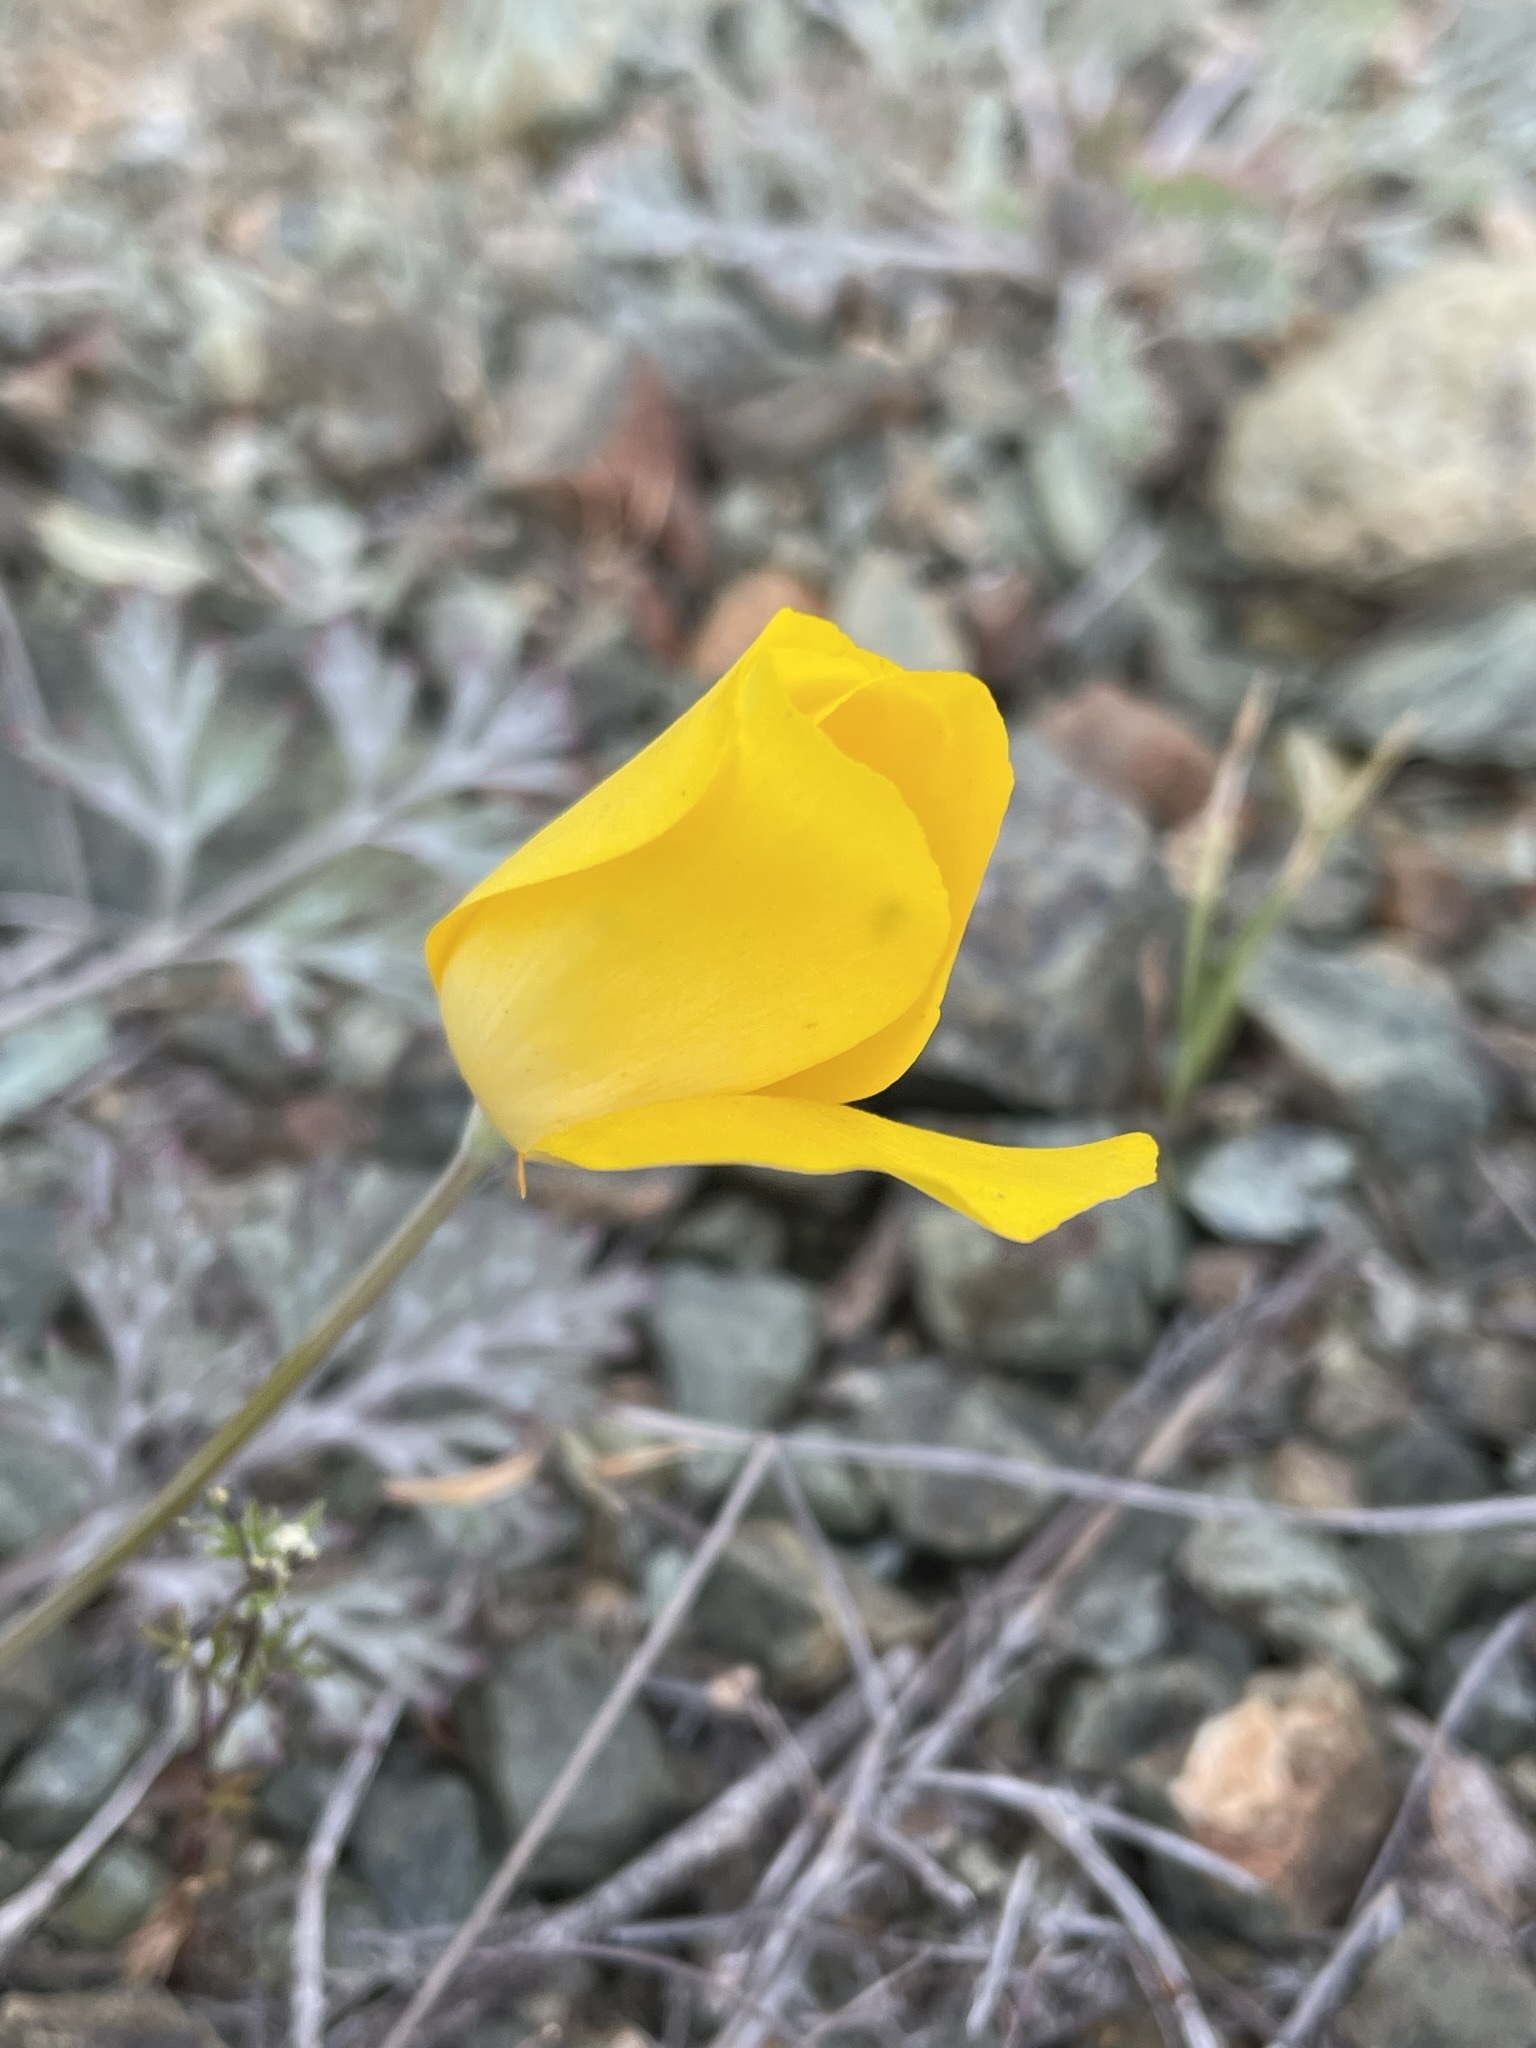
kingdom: Plantae
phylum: Tracheophyta
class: Magnoliopsida
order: Ranunculales
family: Papaveraceae
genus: Eschscholzia
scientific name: Eschscholzia ramosa
